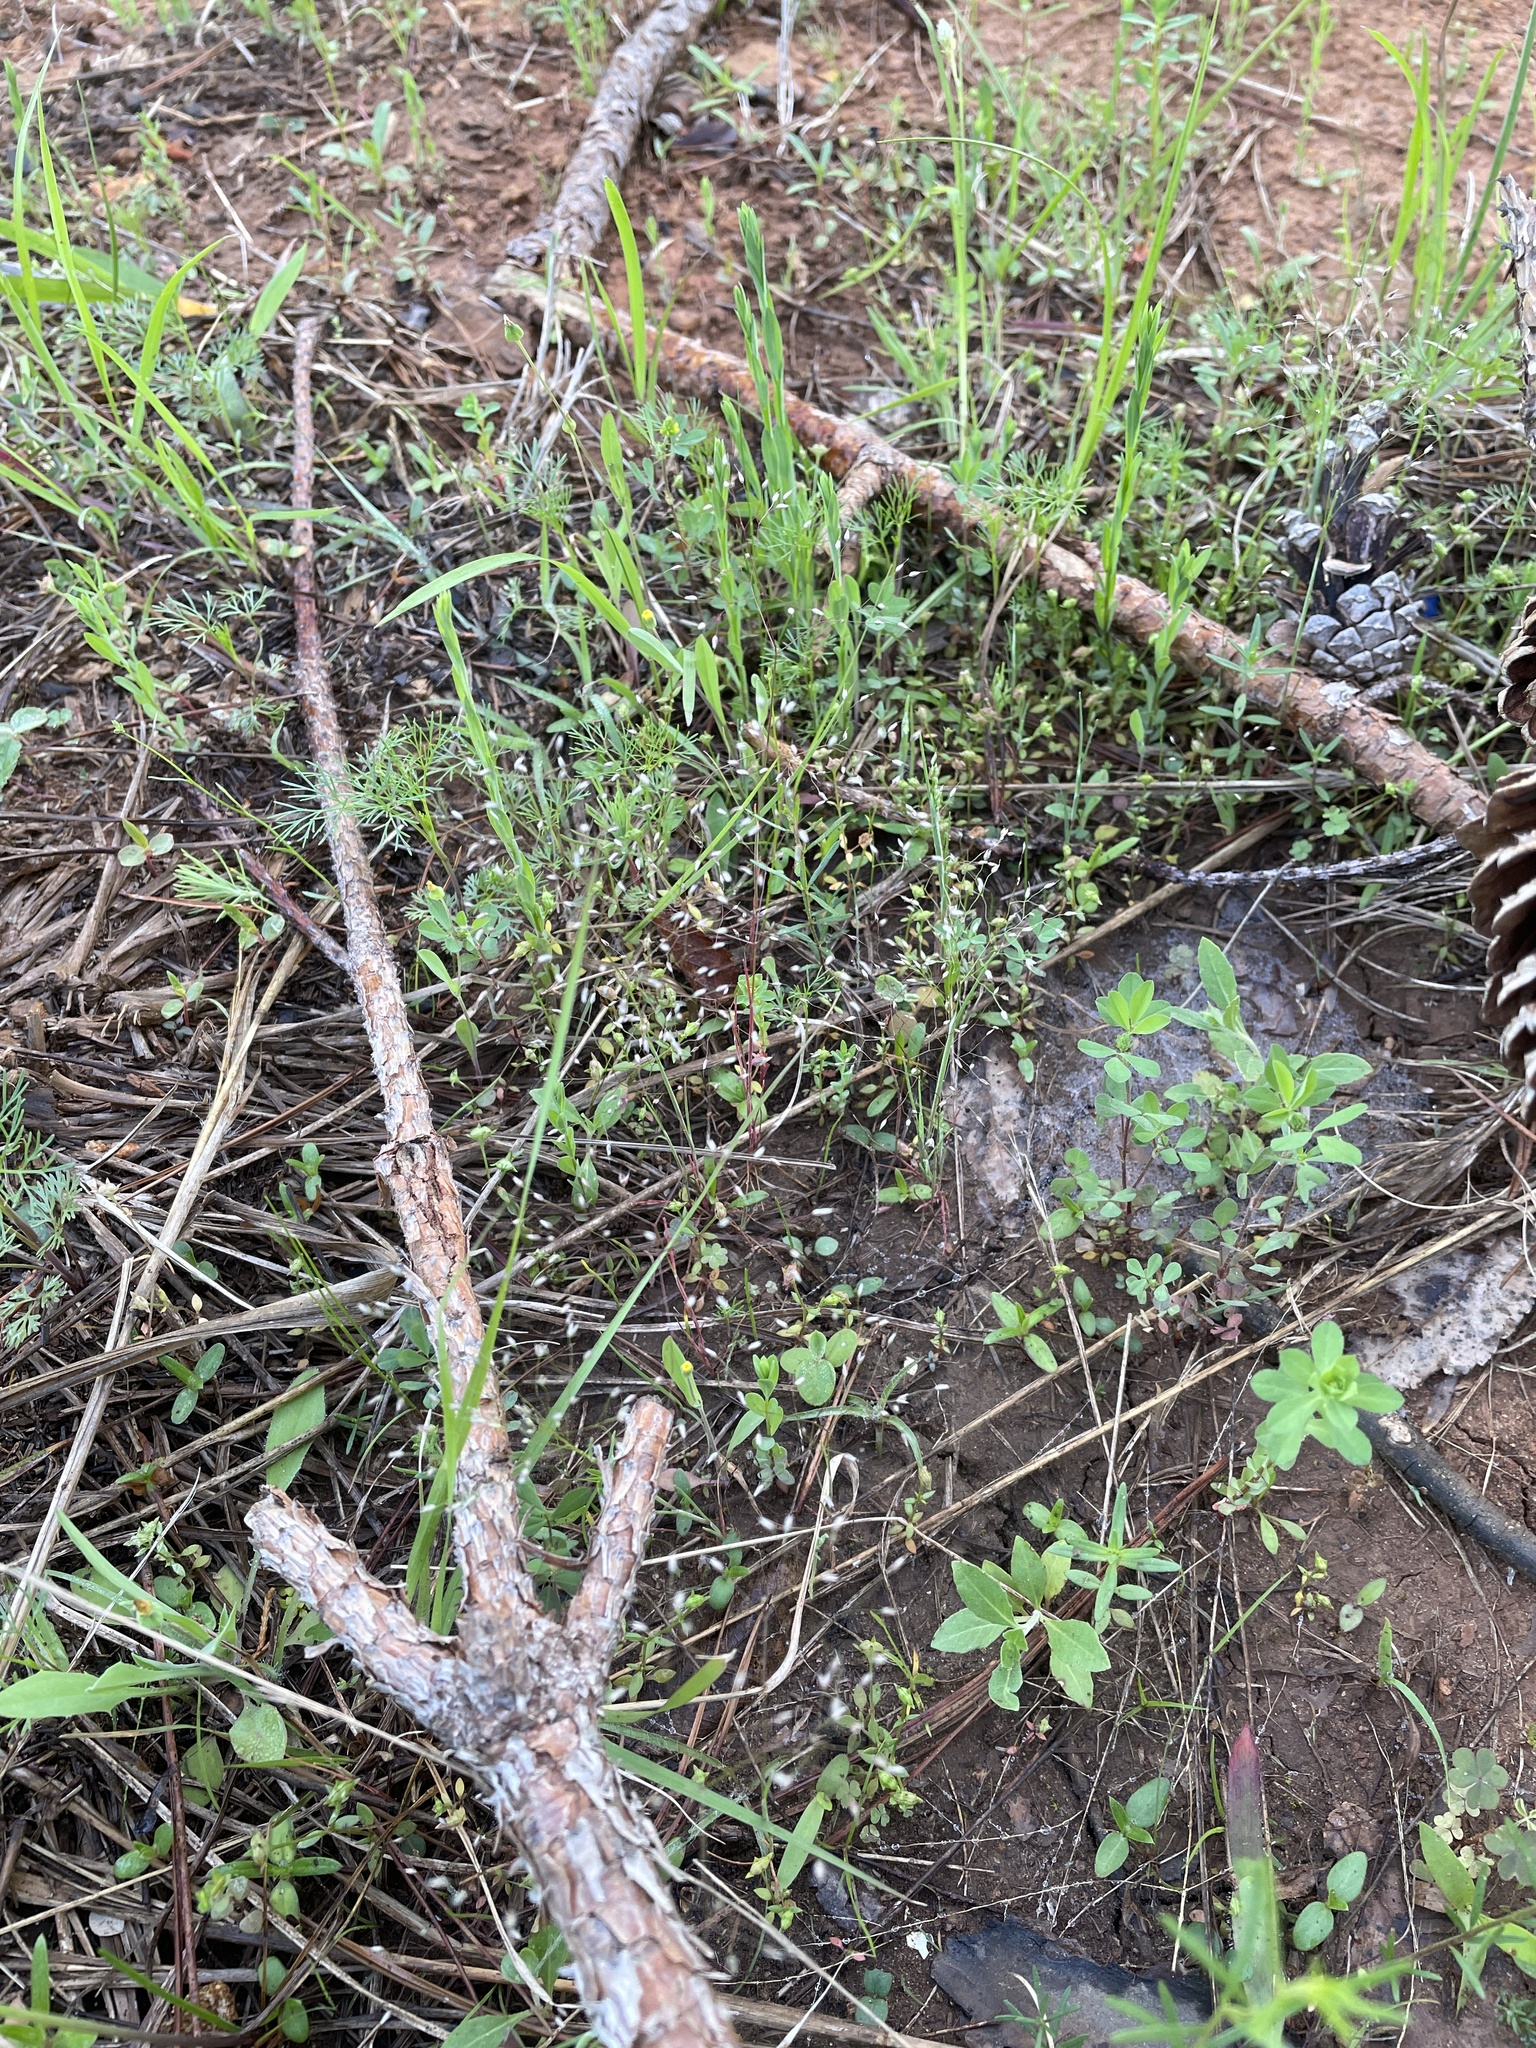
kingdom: Plantae
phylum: Tracheophyta
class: Liliopsida
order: Poales
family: Poaceae
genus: Aira
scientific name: Aira caryophyllea
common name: Silver hairgrass
